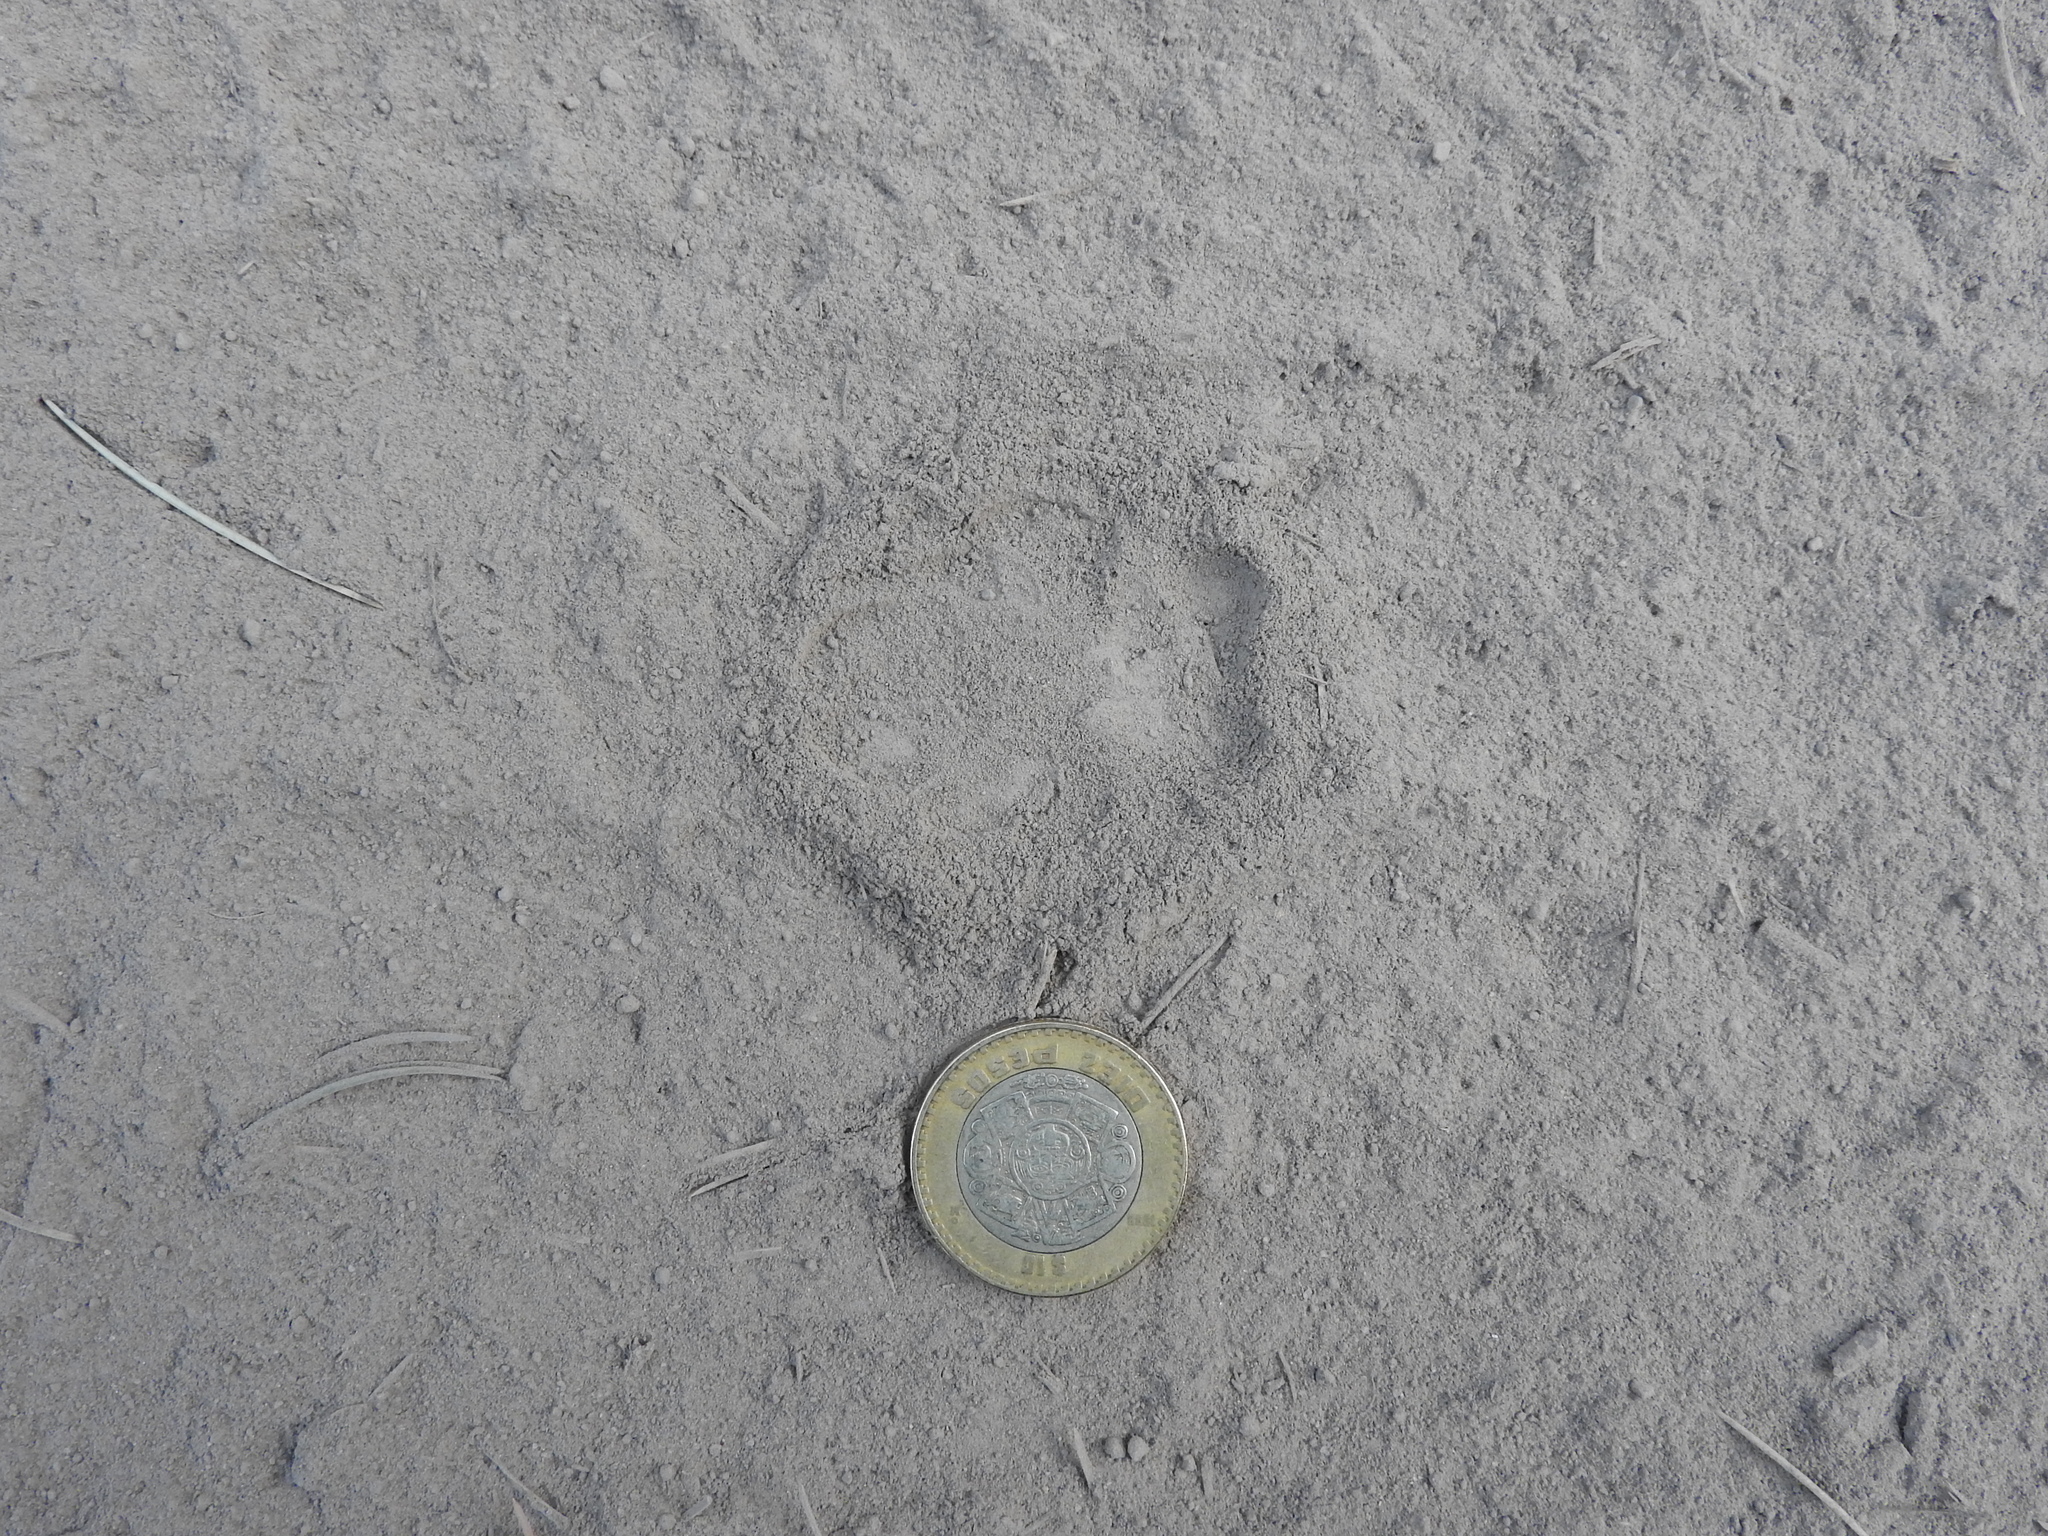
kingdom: Animalia
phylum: Chordata
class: Mammalia
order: Carnivora
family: Canidae
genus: Urocyon
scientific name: Urocyon cinereoargenteus
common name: Gray fox
